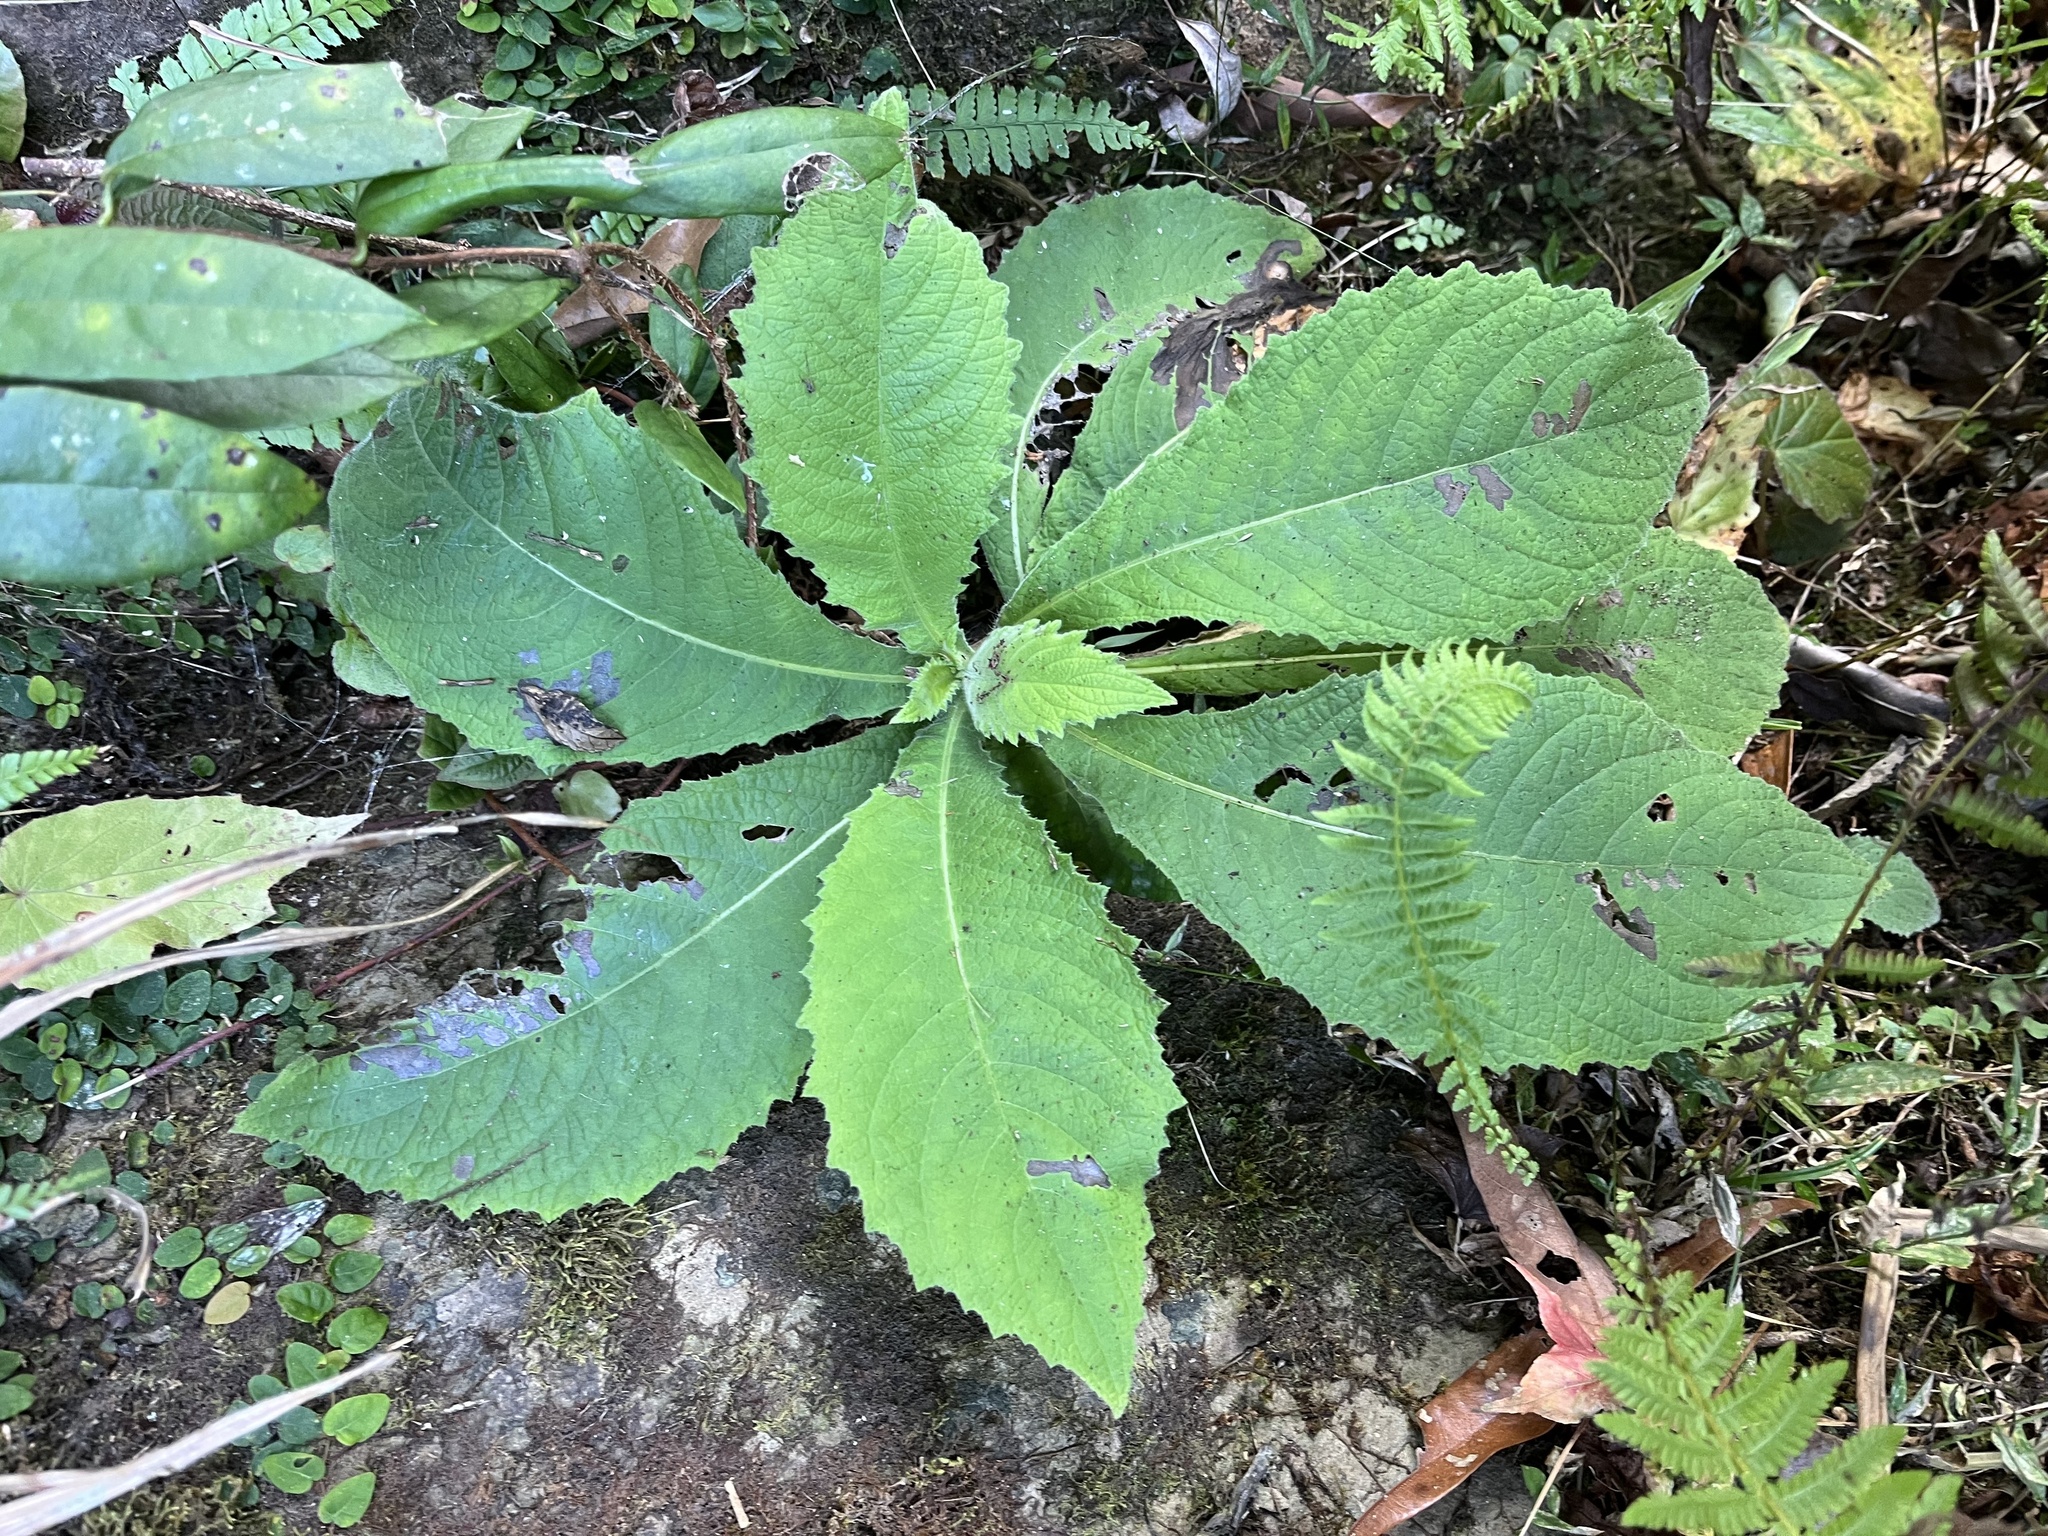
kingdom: Plantae
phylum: Tracheophyta
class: Magnoliopsida
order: Asterales
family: Asteraceae
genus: Blumea
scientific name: Blumea aromatica
